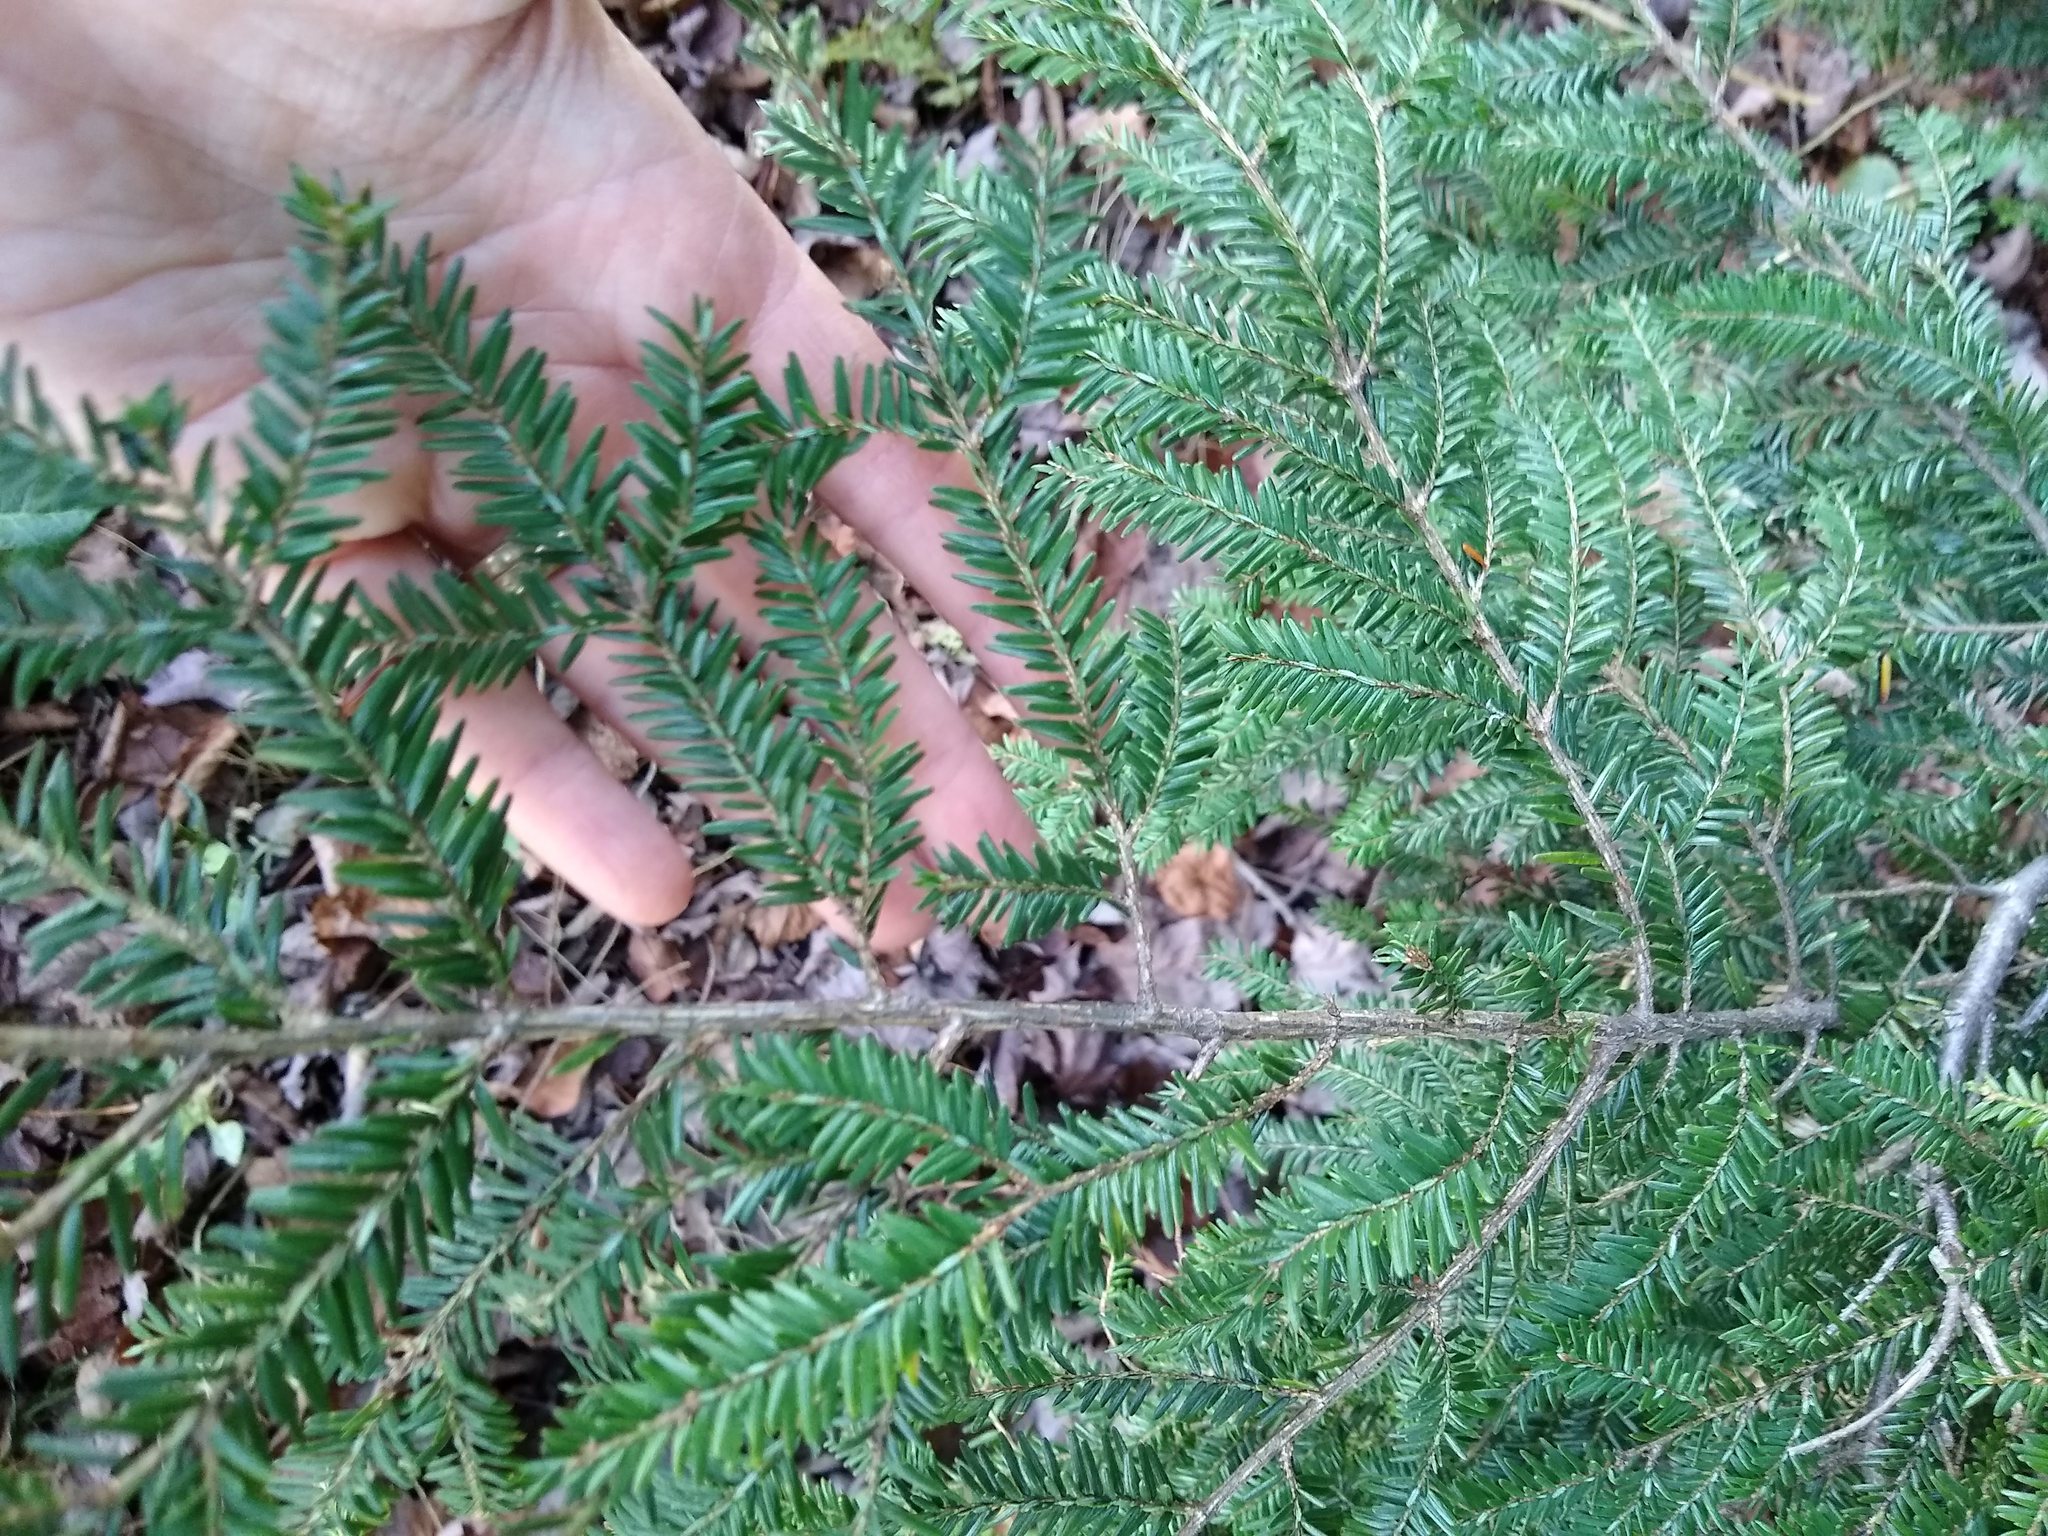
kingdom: Plantae
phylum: Tracheophyta
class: Pinopsida
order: Pinales
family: Pinaceae
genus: Tsuga
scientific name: Tsuga canadensis
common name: Eastern hemlock
